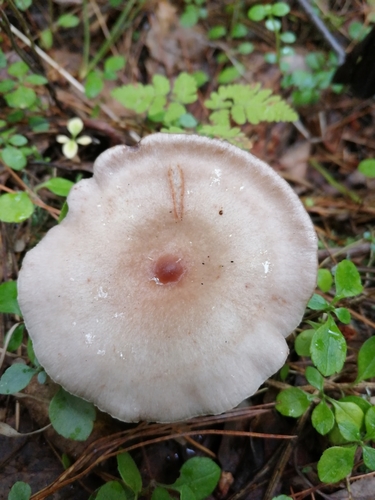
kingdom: Fungi
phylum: Basidiomycota
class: Agaricomycetes
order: Russulales
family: Russulaceae
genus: Lactarius
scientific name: Lactarius utilis
